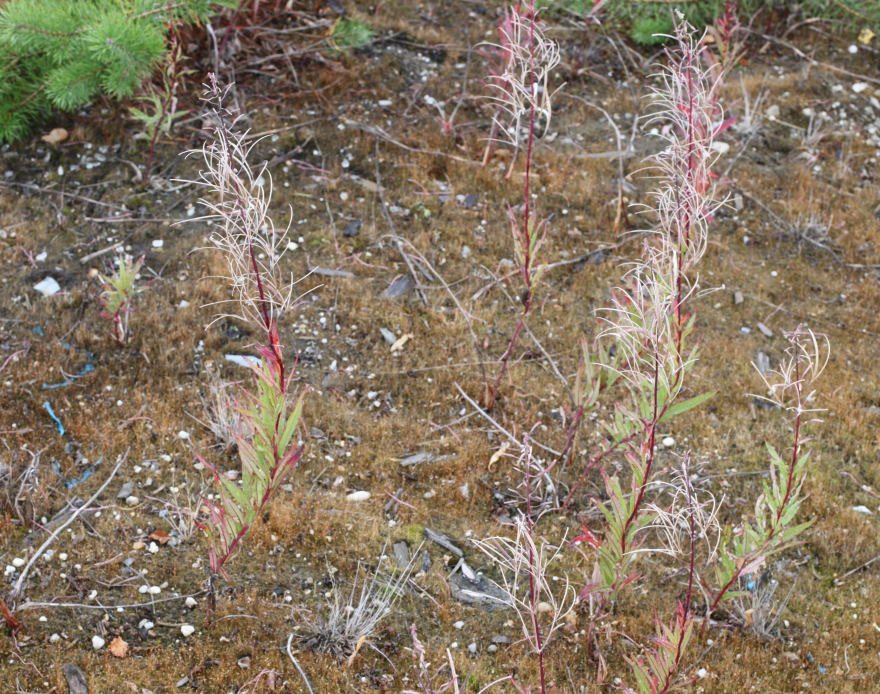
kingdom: Plantae
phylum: Tracheophyta
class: Magnoliopsida
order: Myrtales
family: Onagraceae
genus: Chamaenerion
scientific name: Chamaenerion angustifolium
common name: Fireweed
